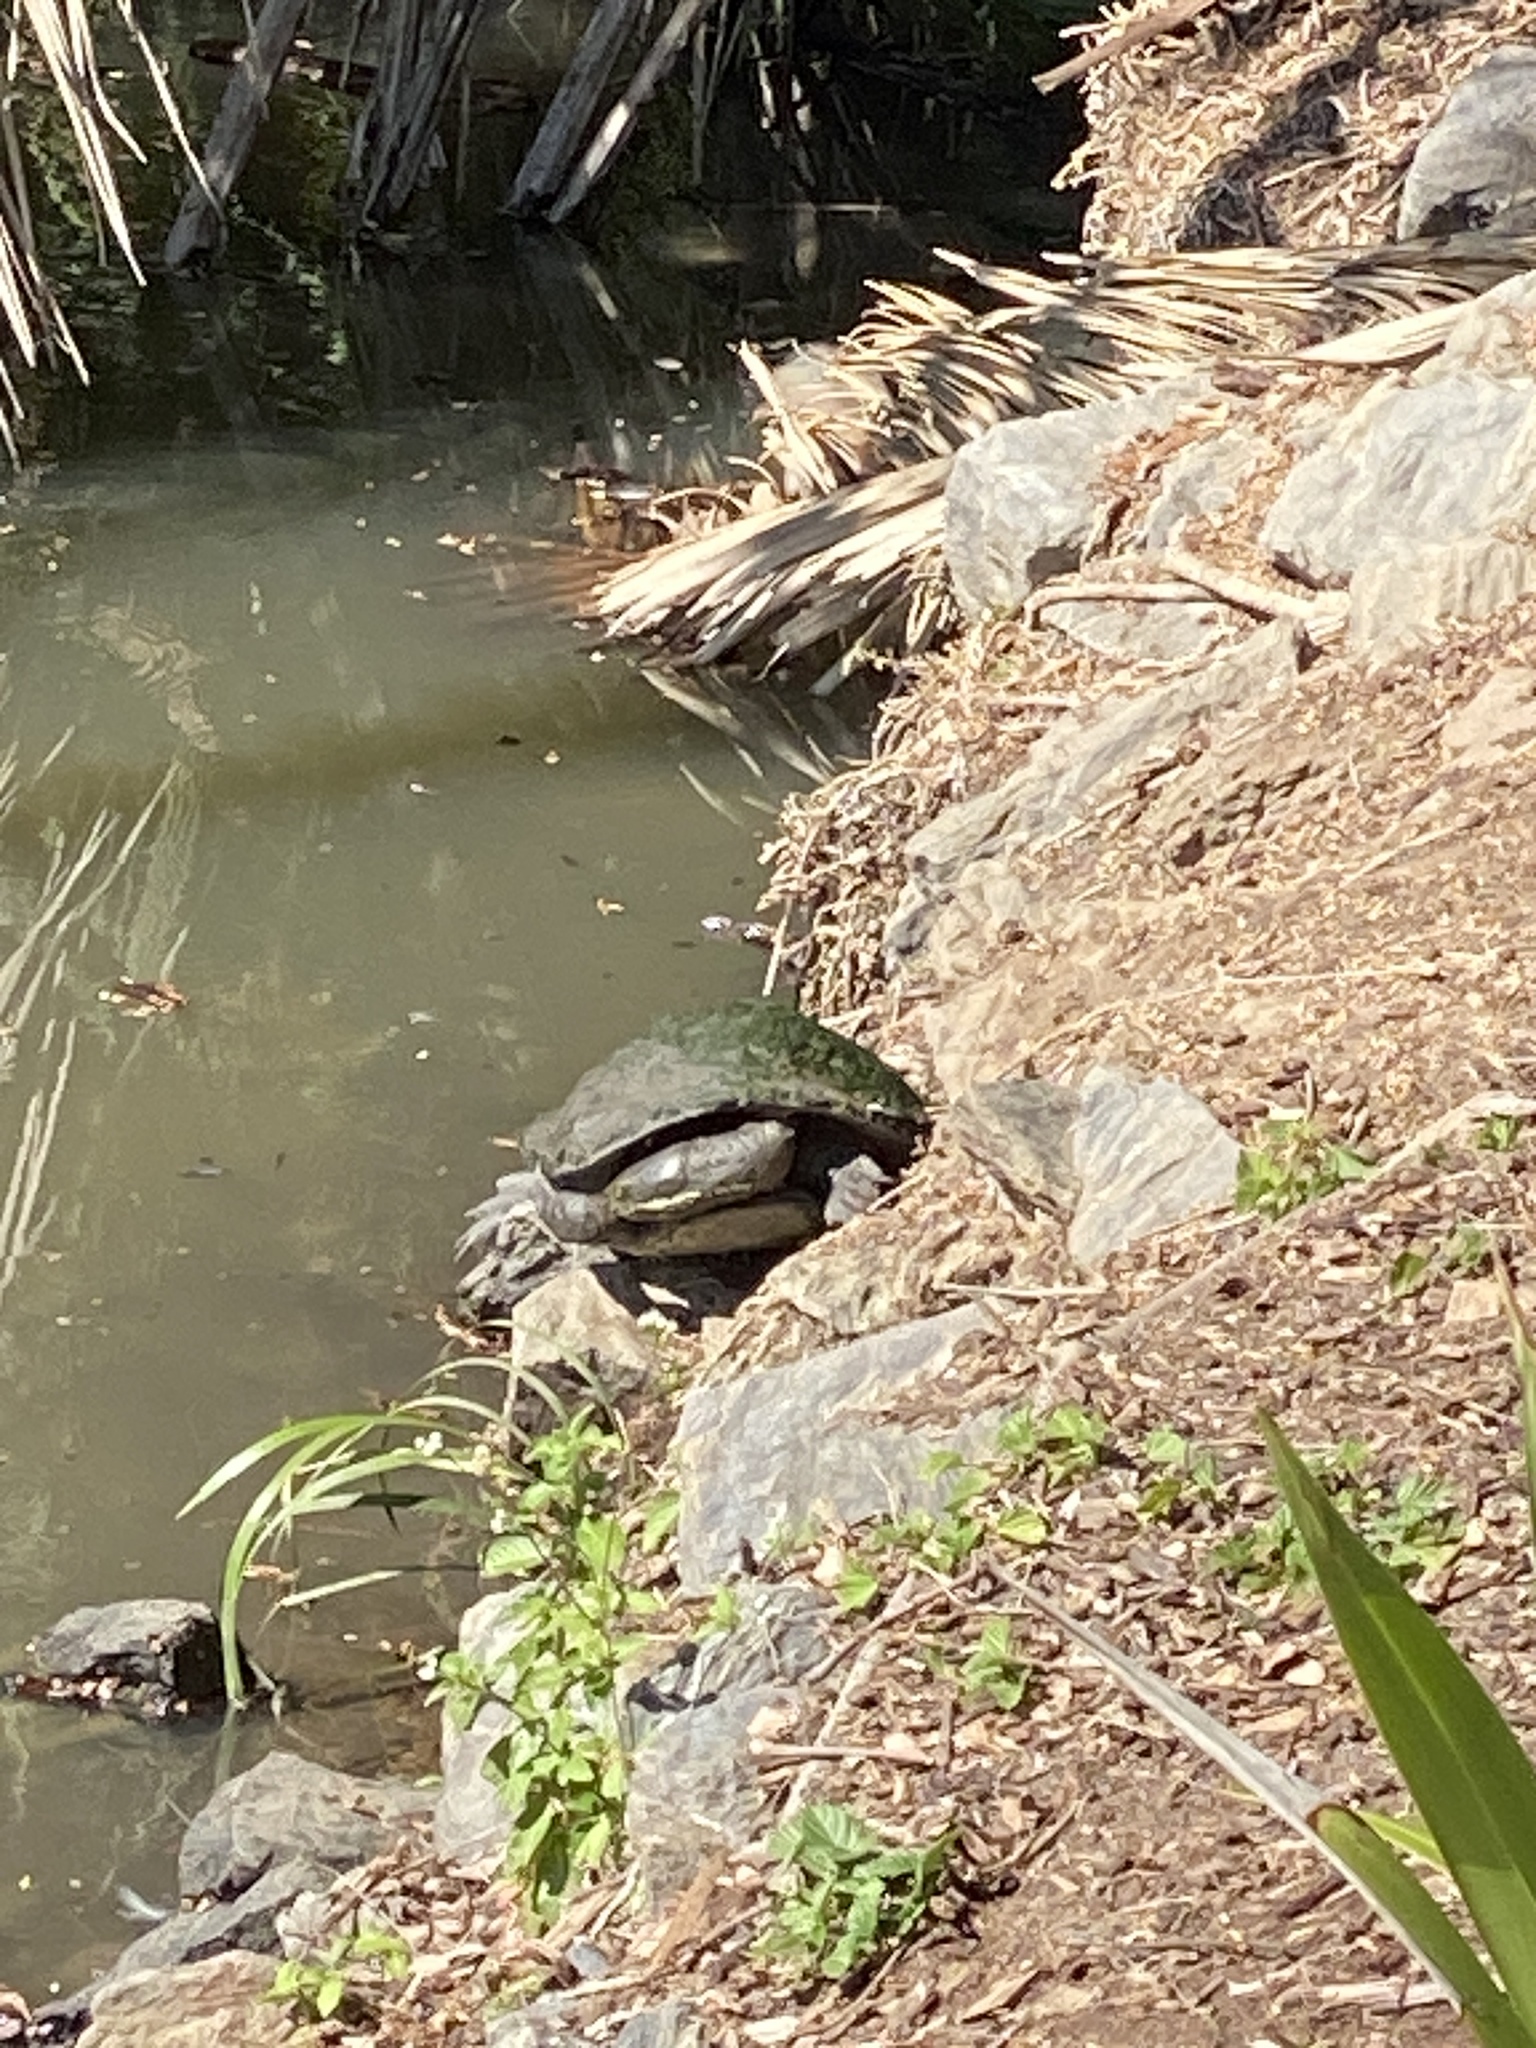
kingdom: Animalia
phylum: Chordata
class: Testudines
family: Chelidae
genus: Emydura
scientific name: Emydura macquarii
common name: Murray river turtle
